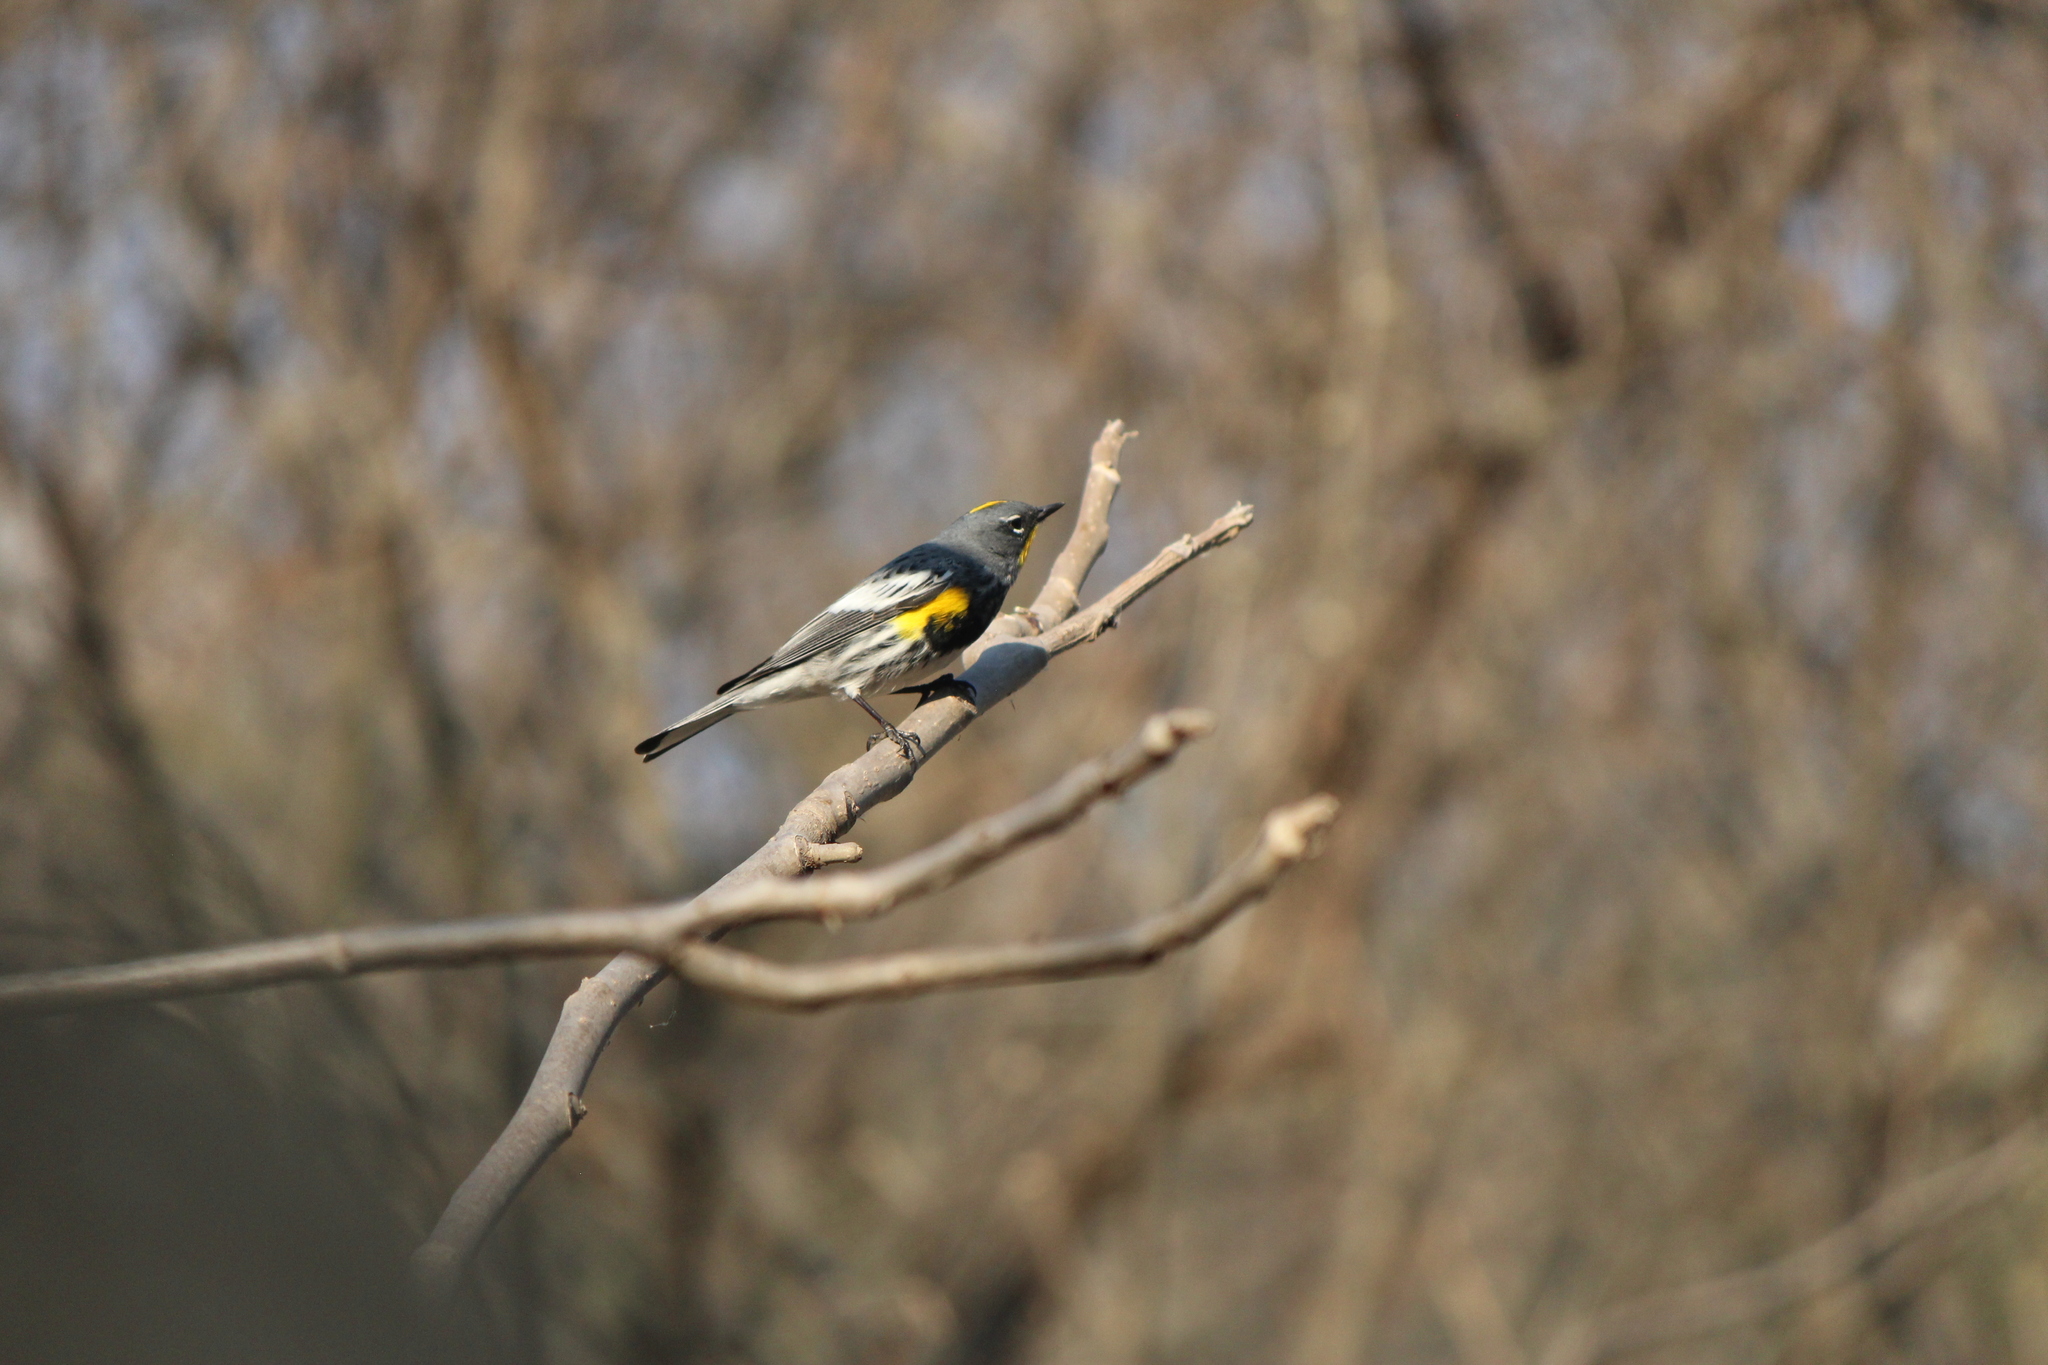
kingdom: Animalia
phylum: Chordata
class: Aves
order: Passeriformes
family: Parulidae
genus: Setophaga
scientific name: Setophaga auduboni
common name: Audubon's warbler
